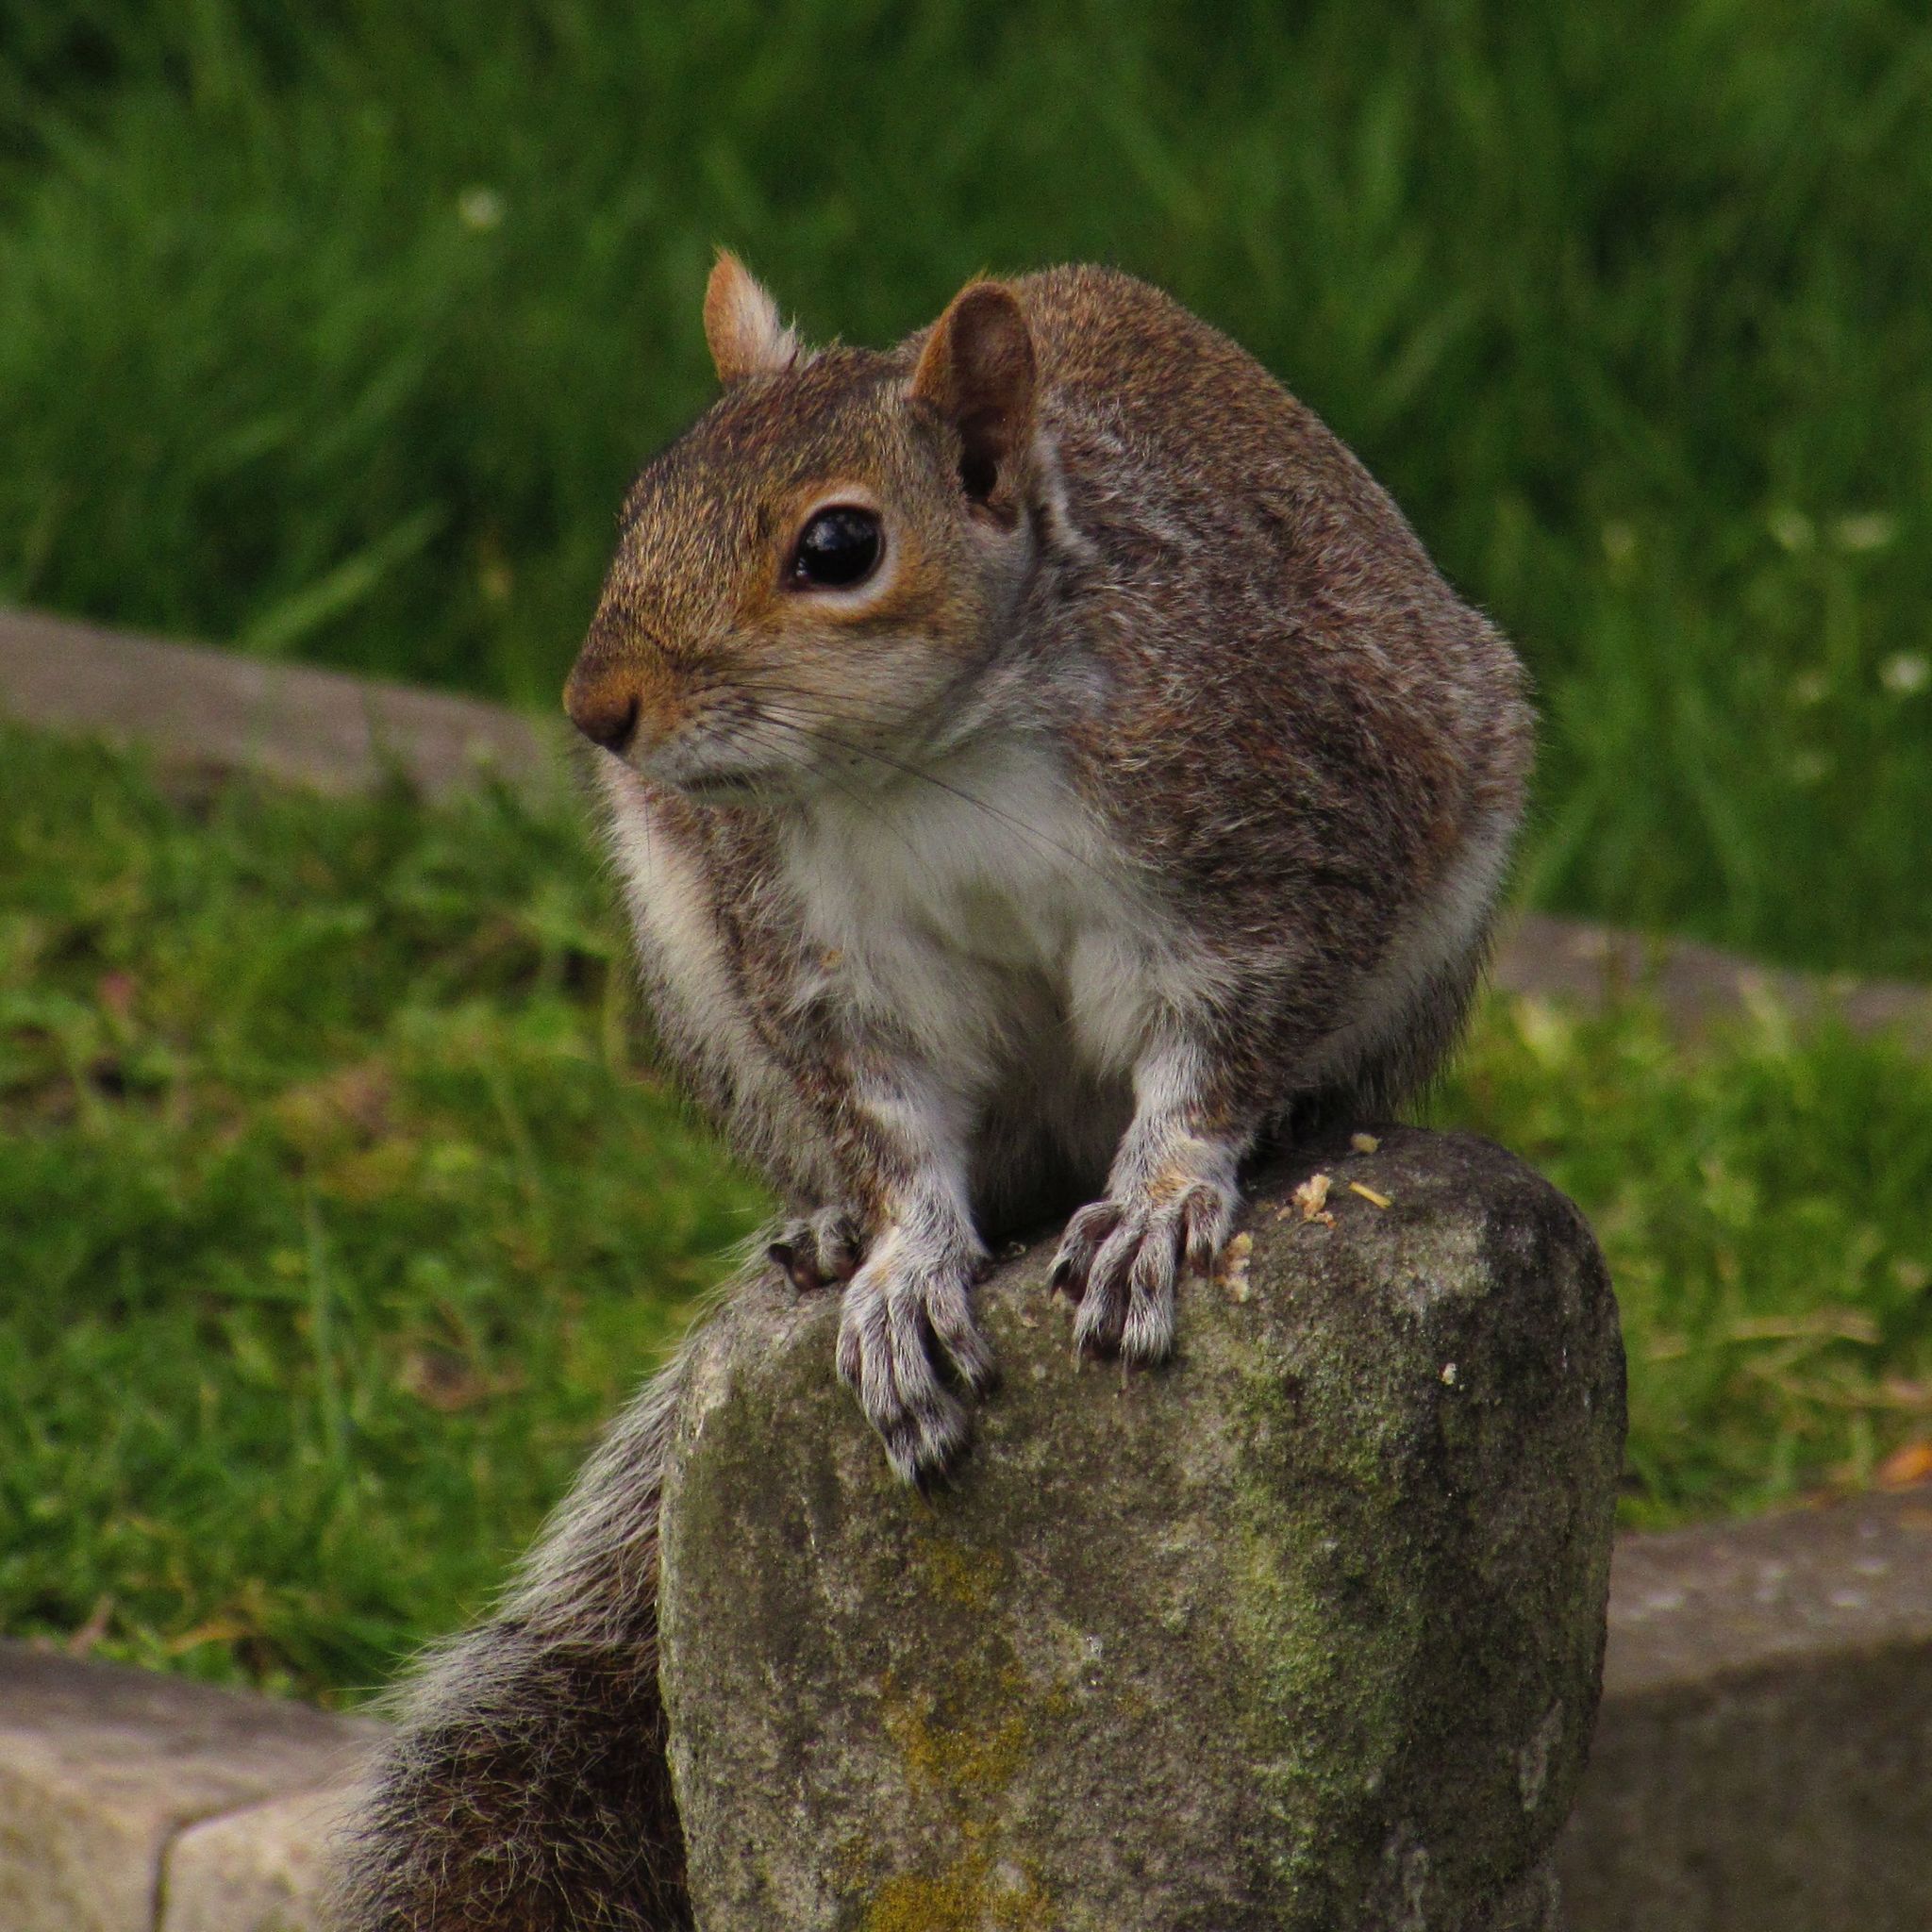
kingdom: Animalia
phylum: Chordata
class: Mammalia
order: Rodentia
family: Sciuridae
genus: Sciurus
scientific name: Sciurus carolinensis
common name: Eastern gray squirrel
